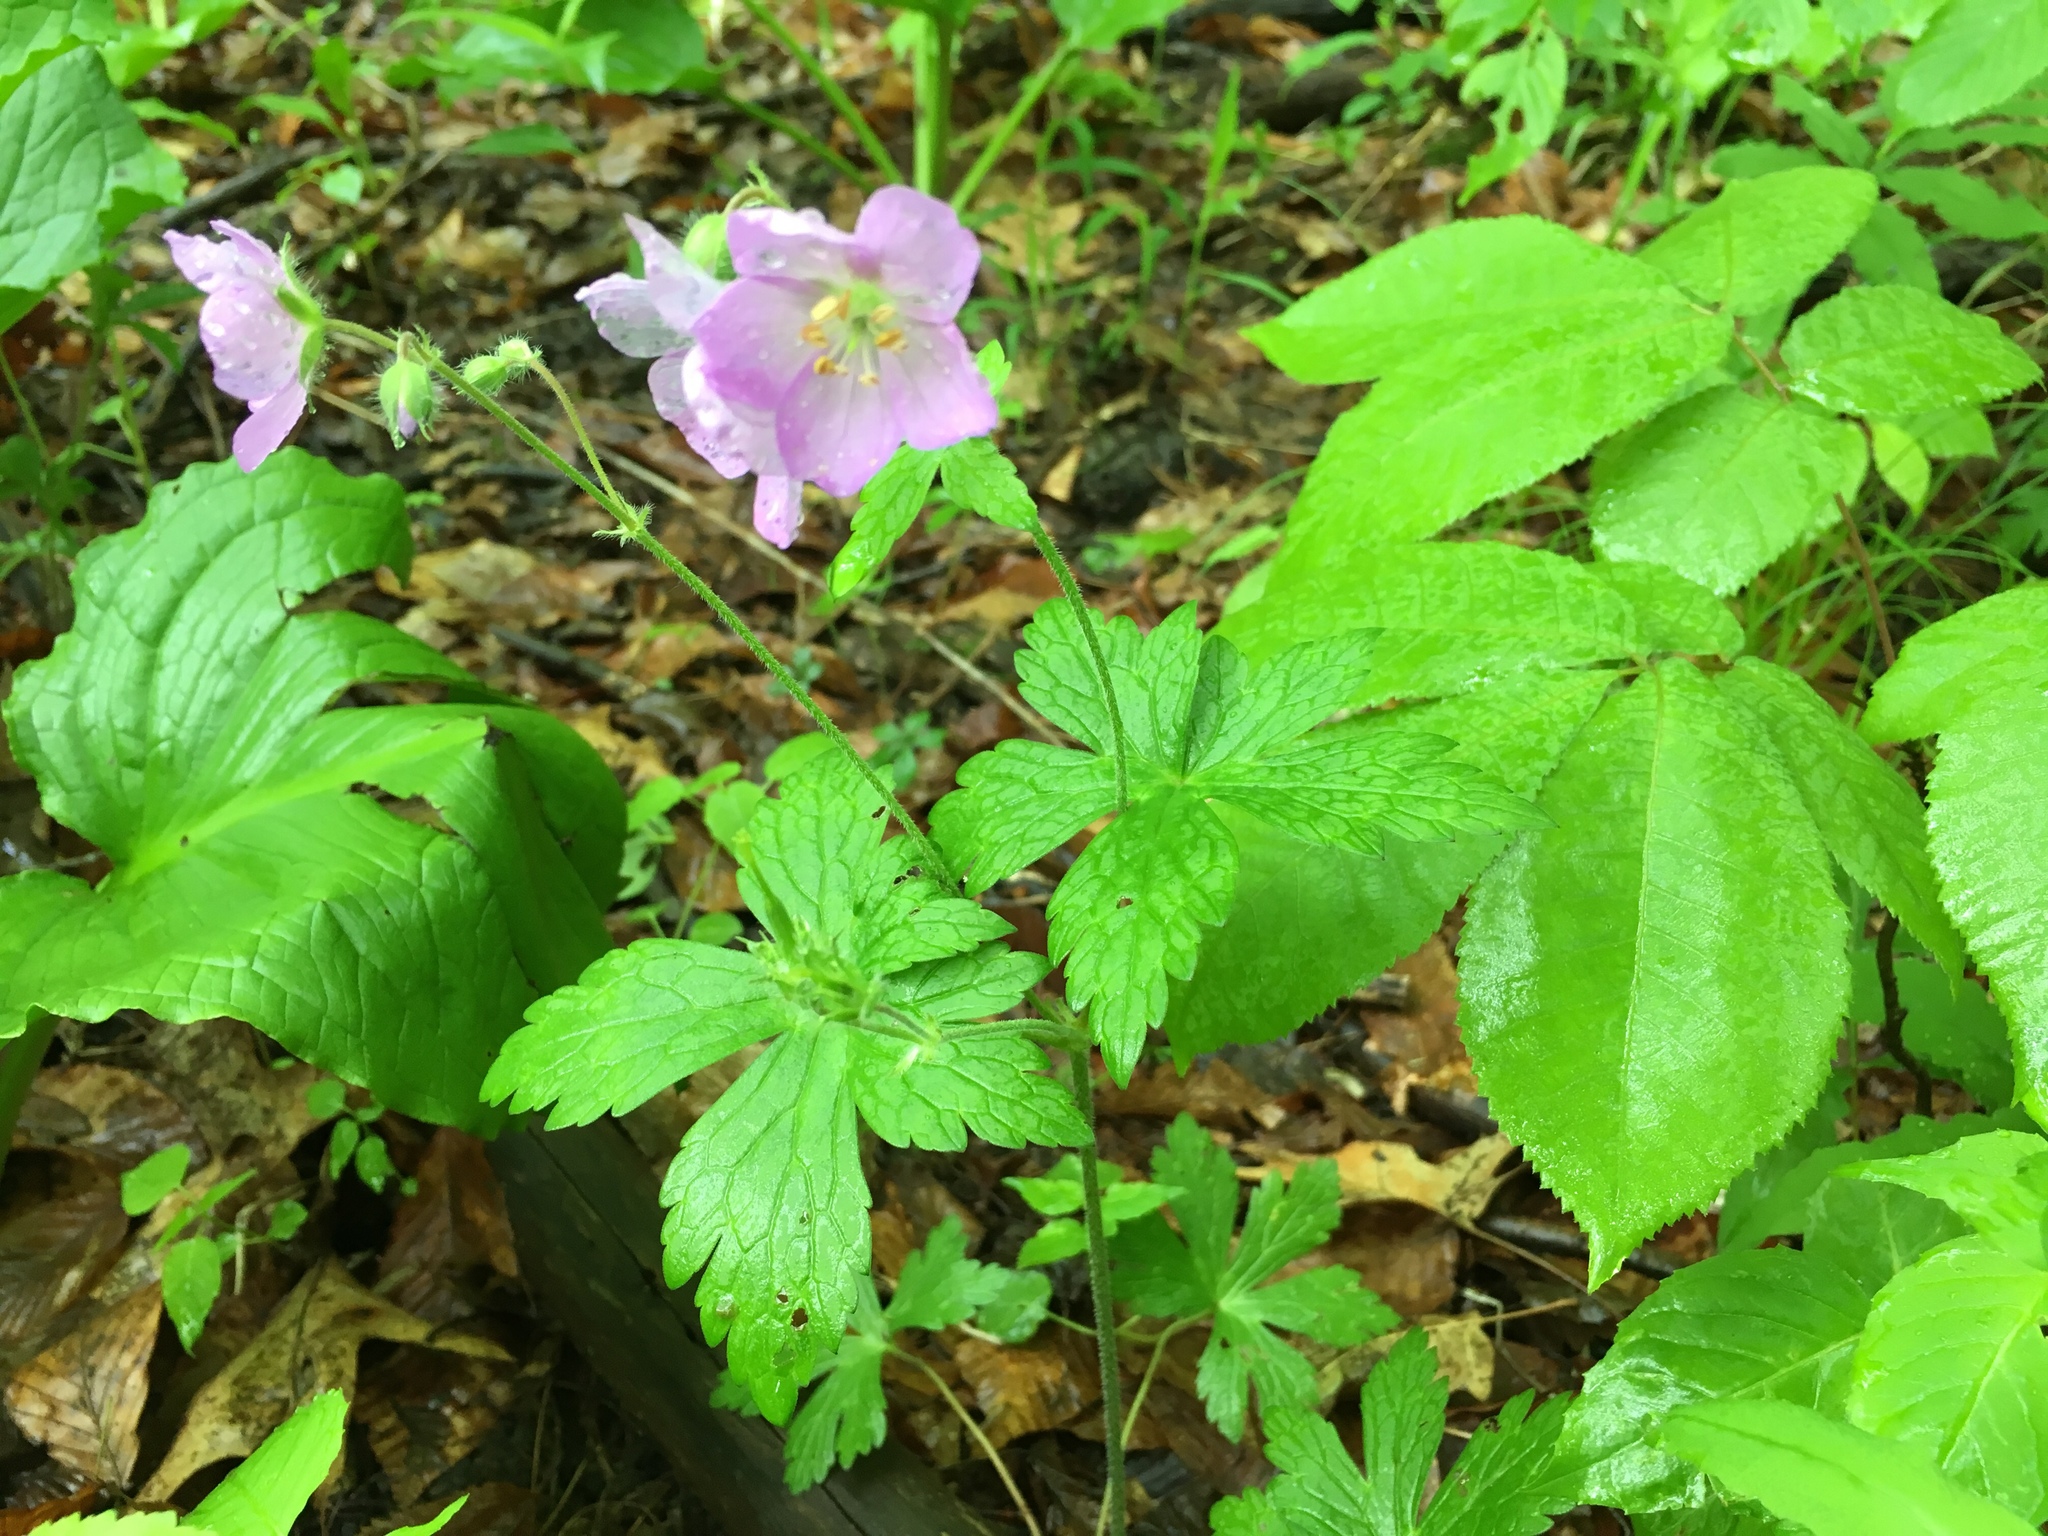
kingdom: Plantae
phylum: Tracheophyta
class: Magnoliopsida
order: Geraniales
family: Geraniaceae
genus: Geranium
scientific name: Geranium maculatum
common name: Spotted geranium
